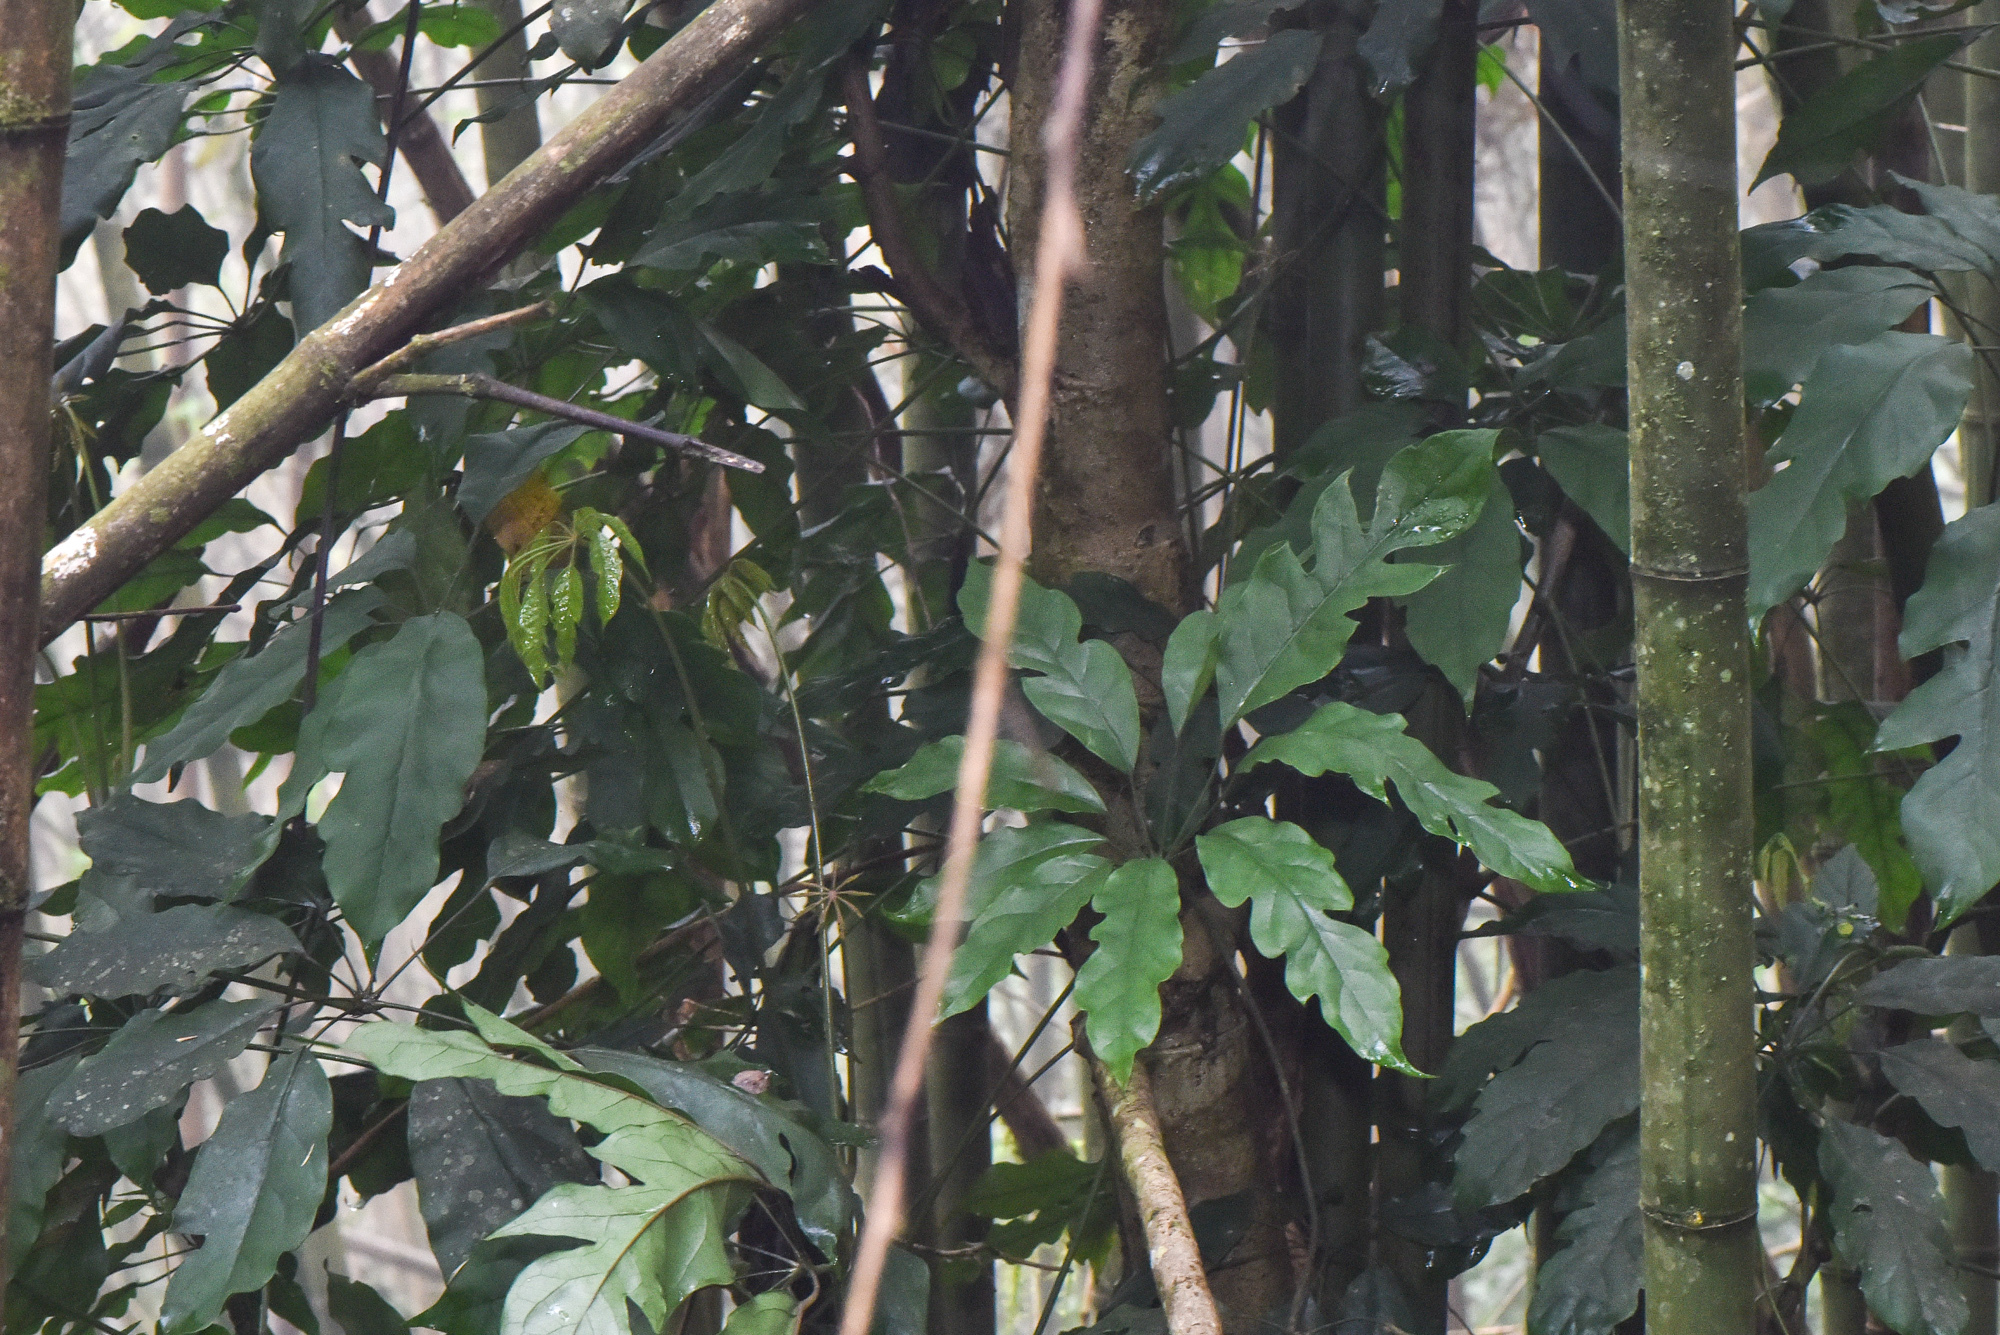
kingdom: Plantae
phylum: Tracheophyta
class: Magnoliopsida
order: Apiales
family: Araliaceae
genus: Heptapleurum
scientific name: Heptapleurum heptaphyllum
